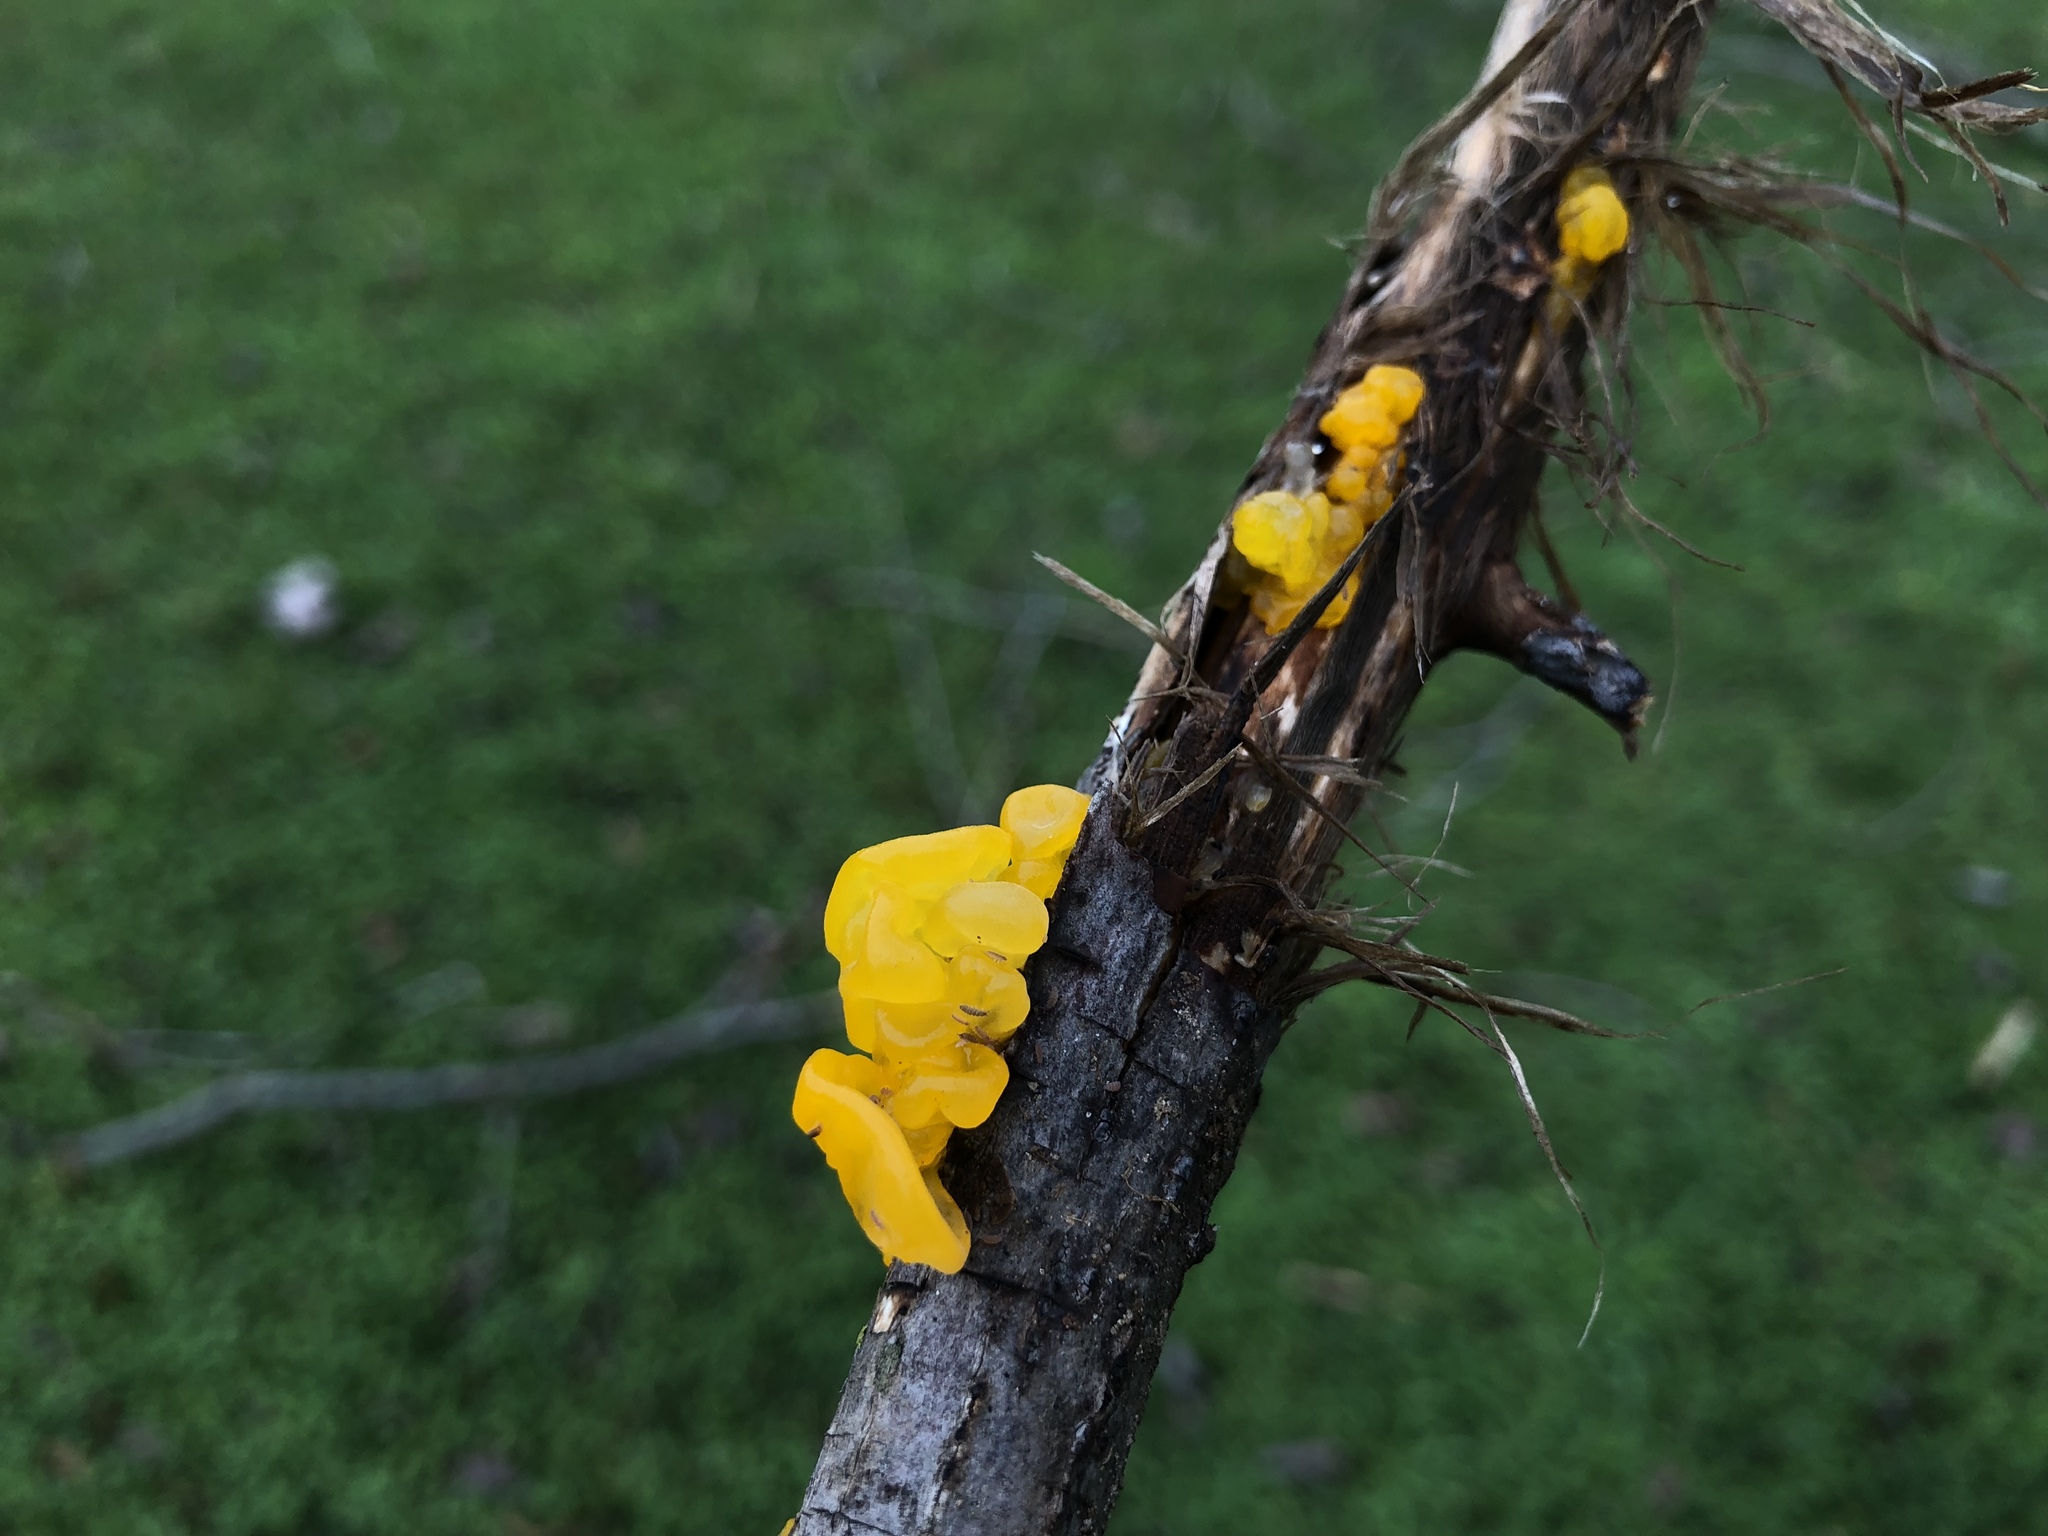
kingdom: Fungi
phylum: Basidiomycota
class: Tremellomycetes
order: Tremellales
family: Tremellaceae
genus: Tremella
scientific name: Tremella mesenterica
